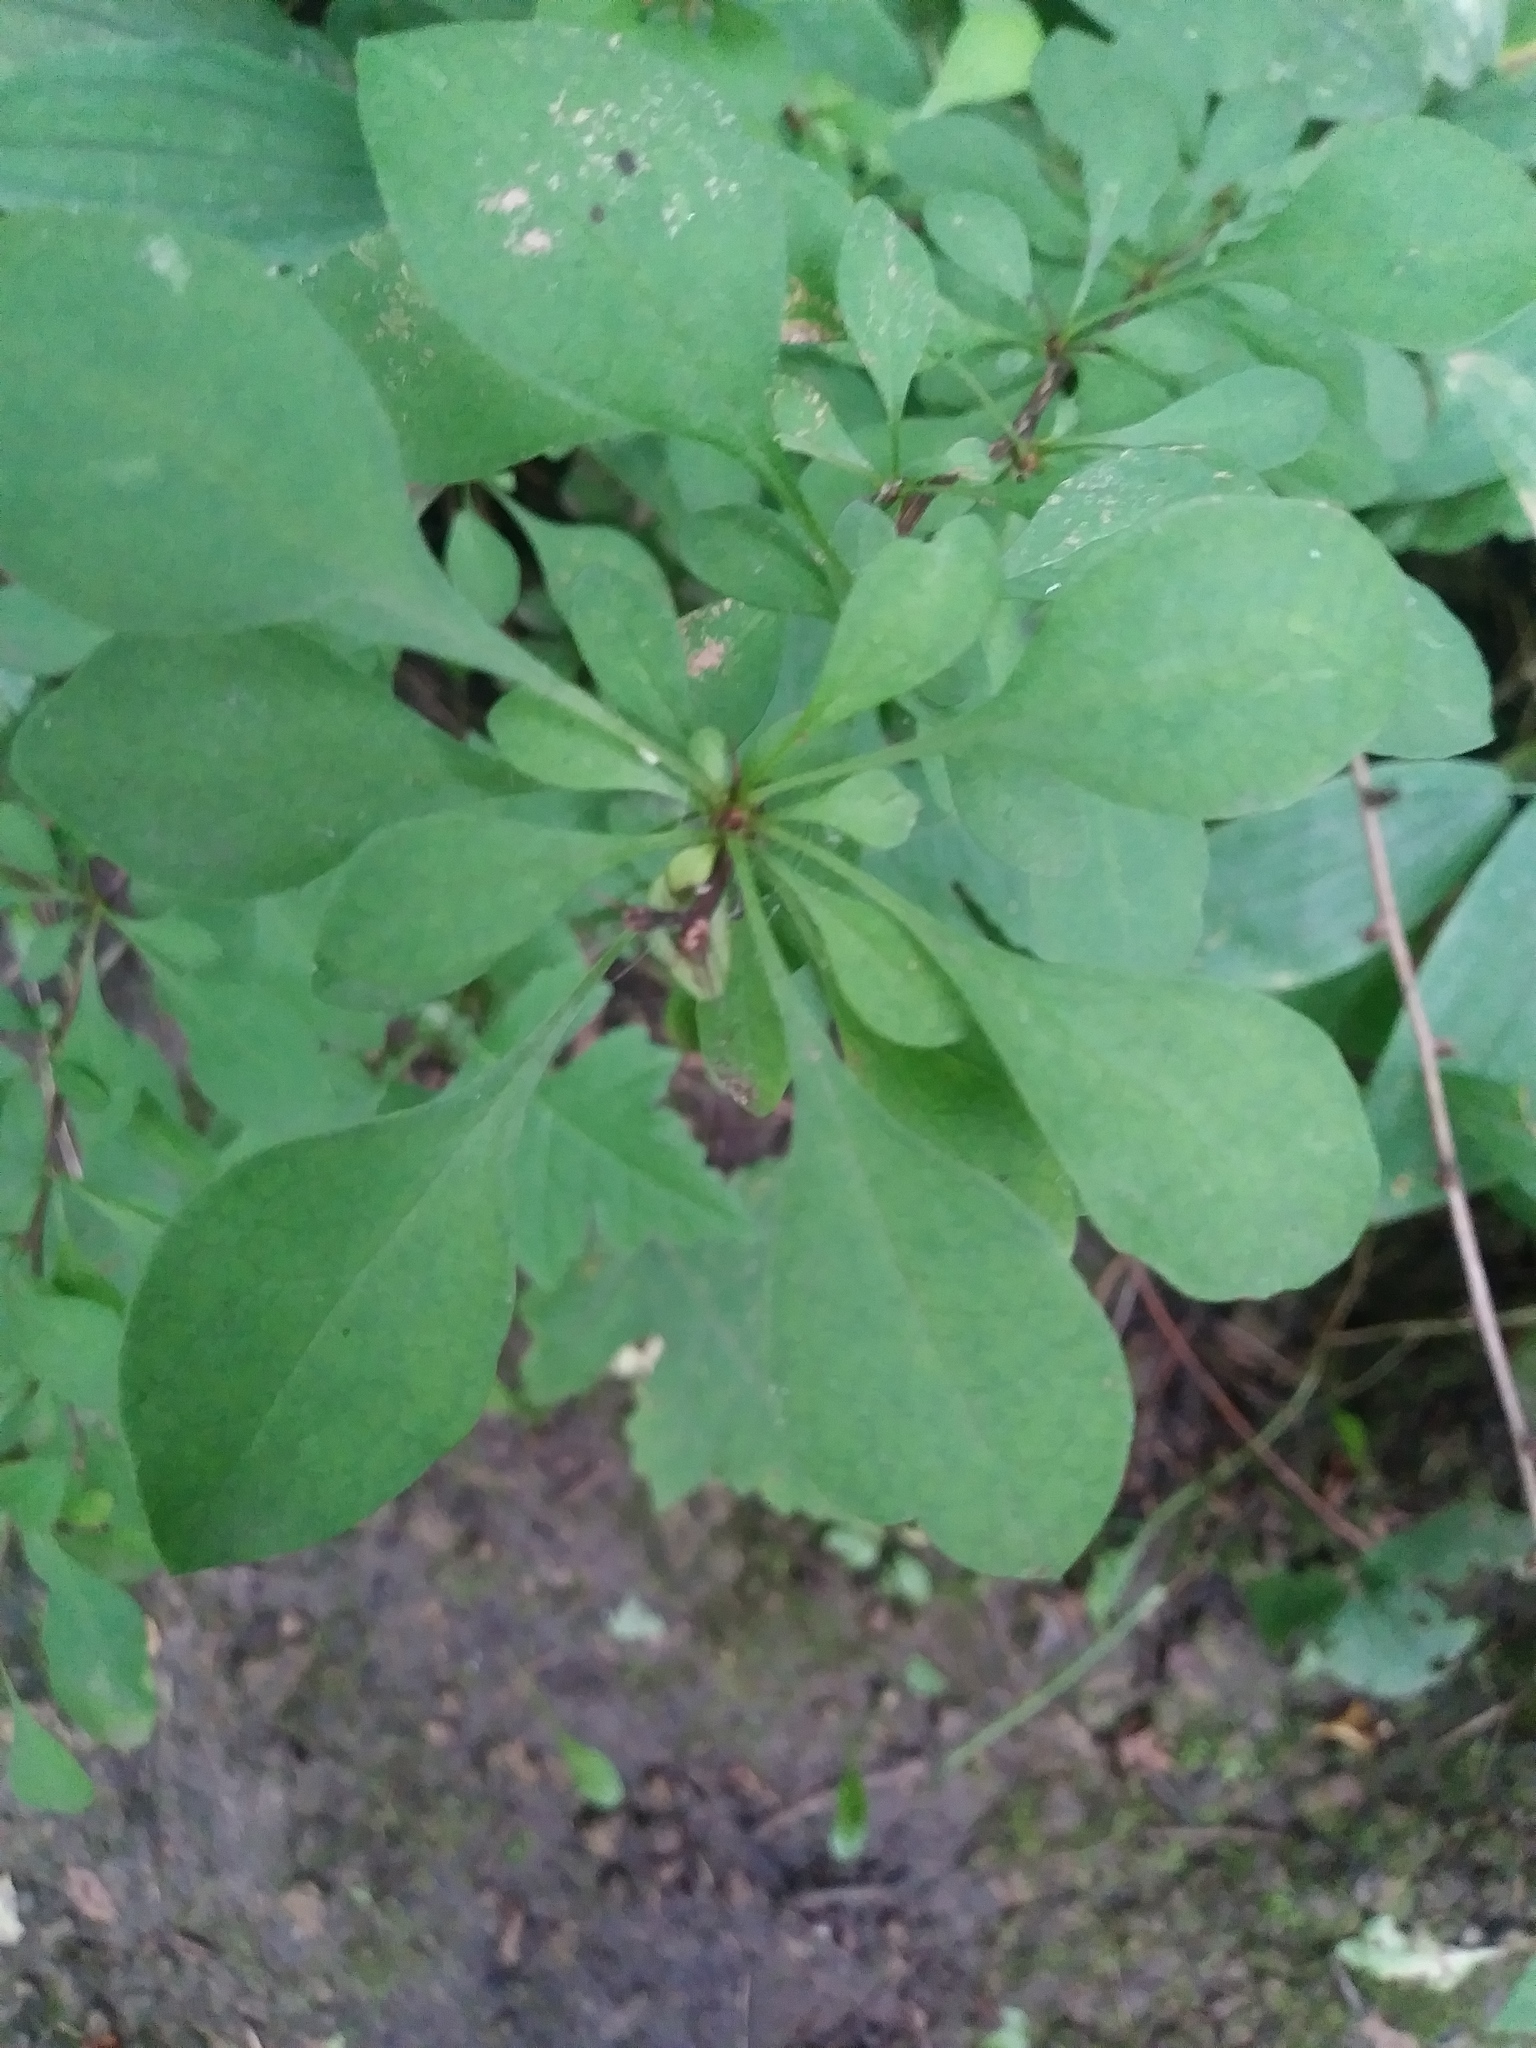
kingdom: Plantae
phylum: Tracheophyta
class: Magnoliopsida
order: Ranunculales
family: Berberidaceae
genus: Berberis
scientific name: Berberis thunbergii
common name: Japanese barberry
